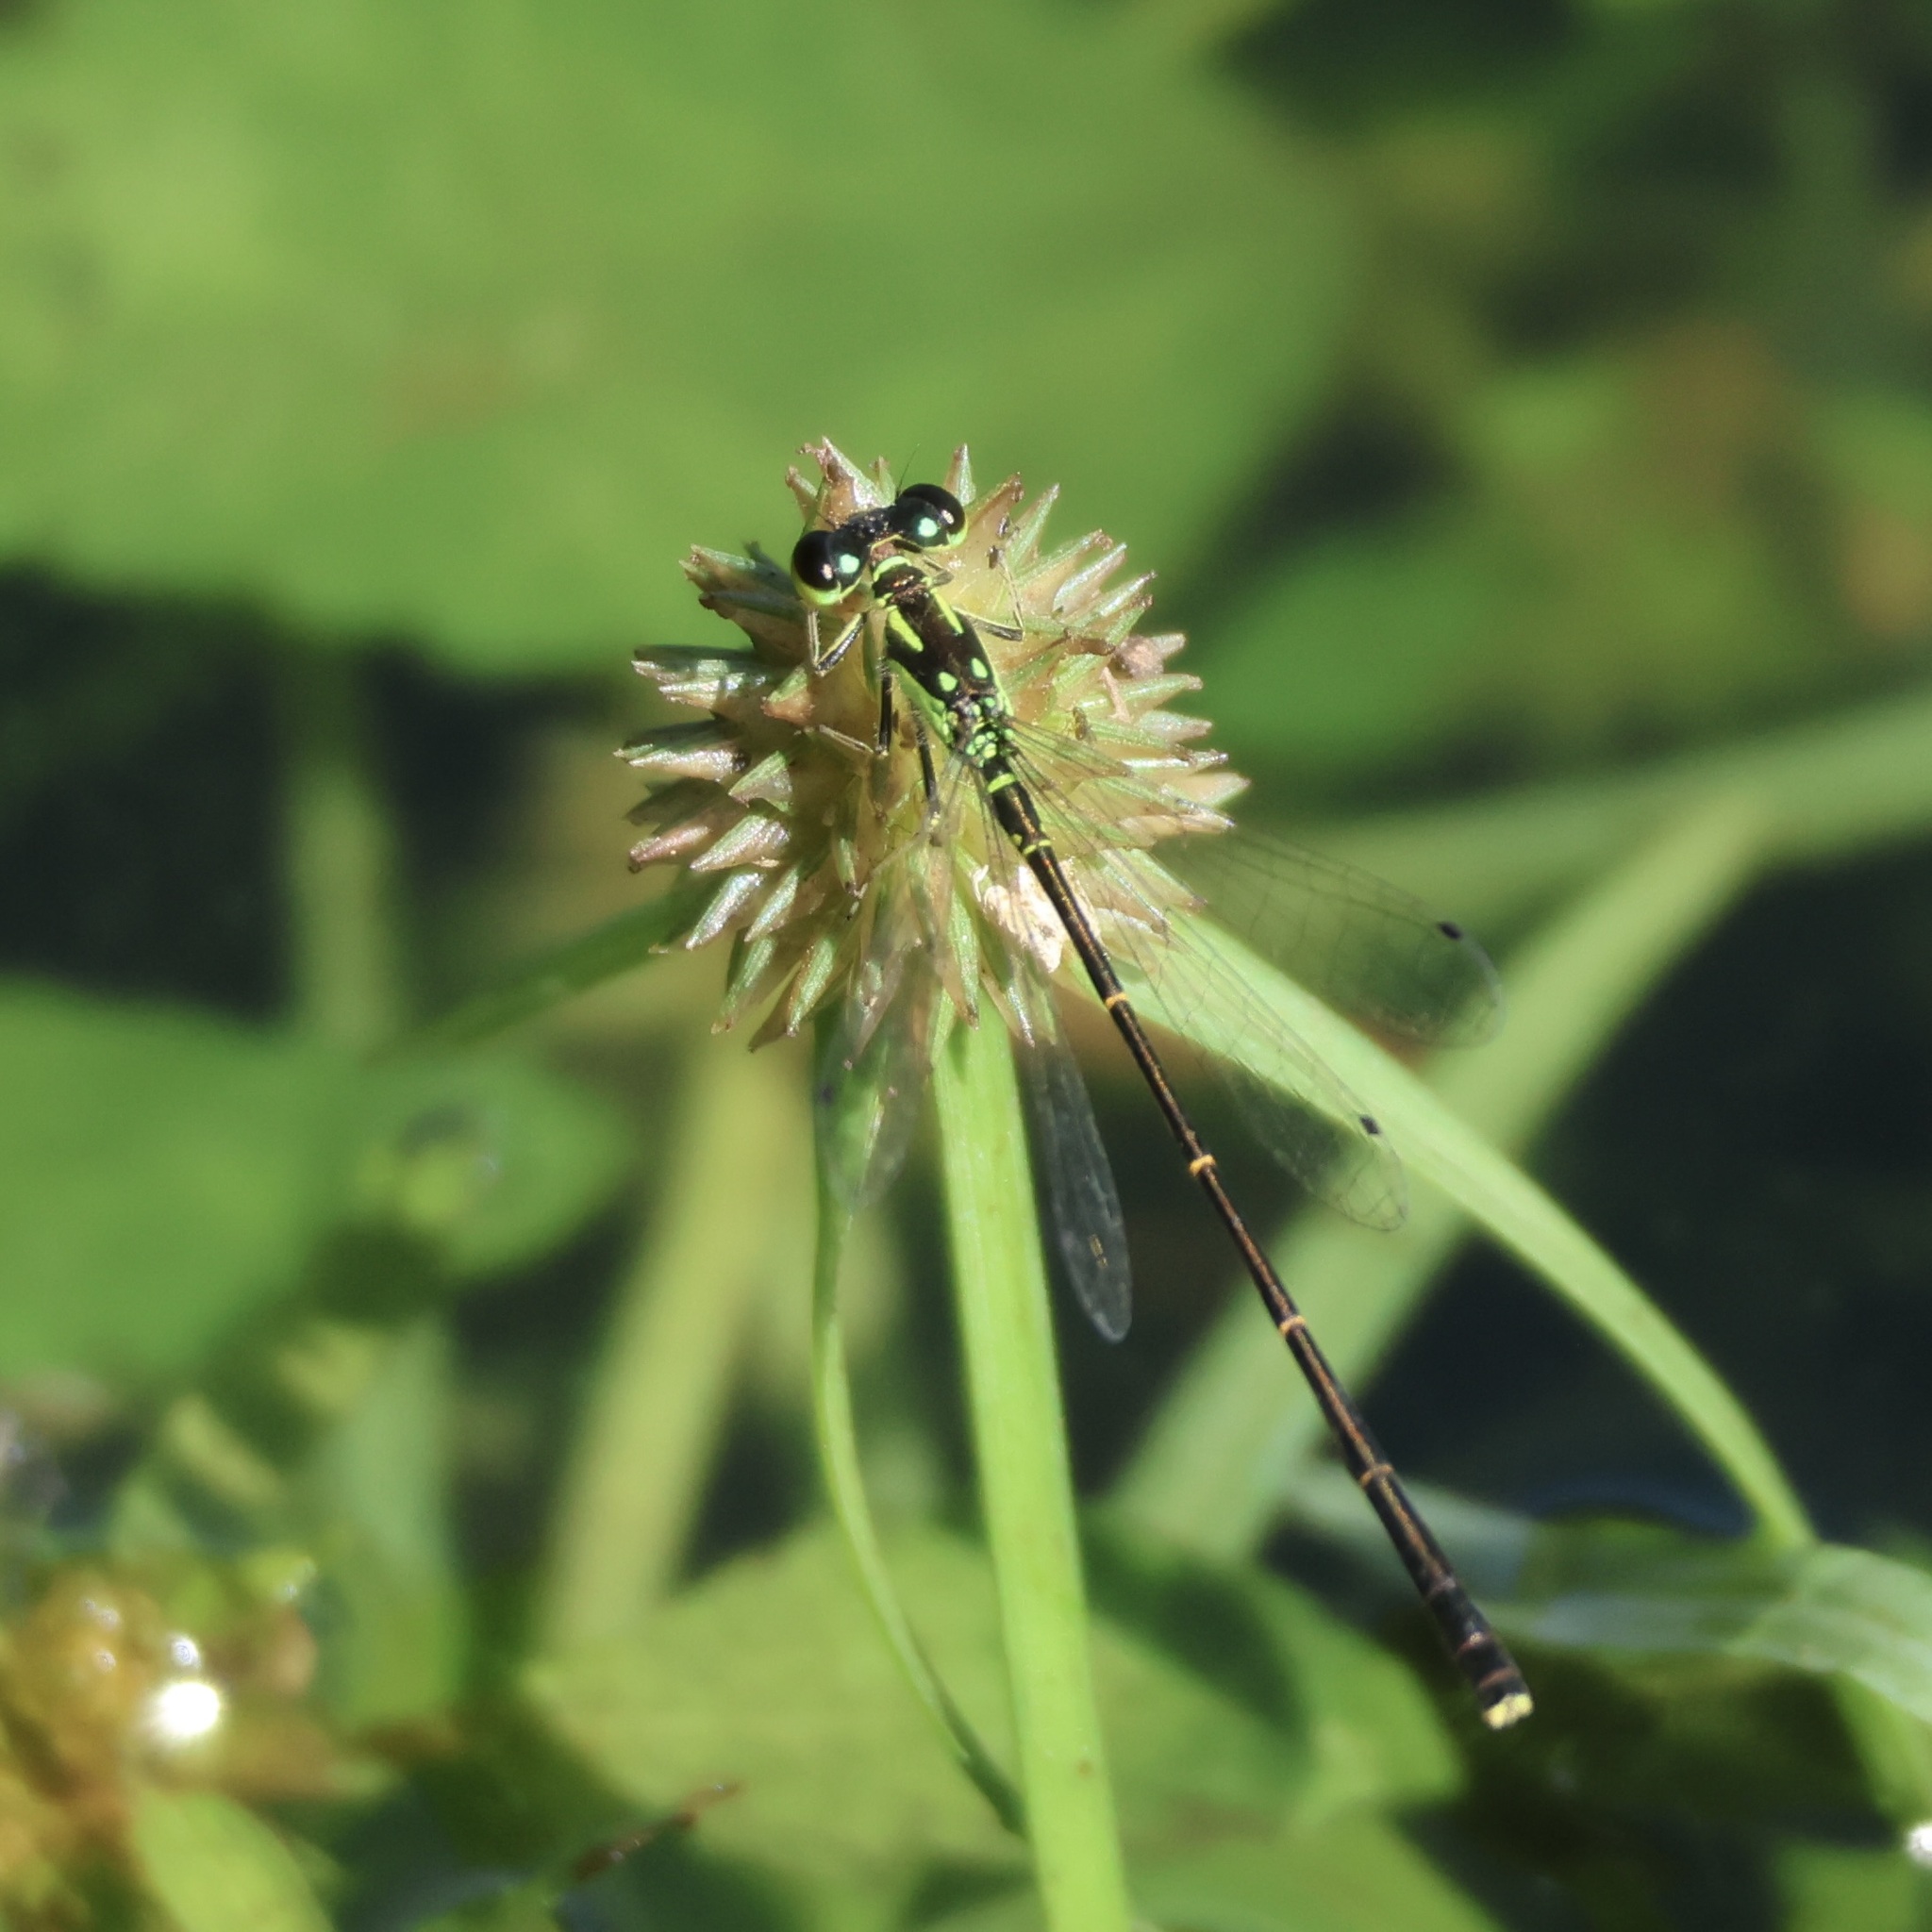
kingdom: Animalia
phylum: Arthropoda
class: Insecta
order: Odonata
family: Coenagrionidae
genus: Ischnura
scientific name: Ischnura posita
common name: Fragile forktail
